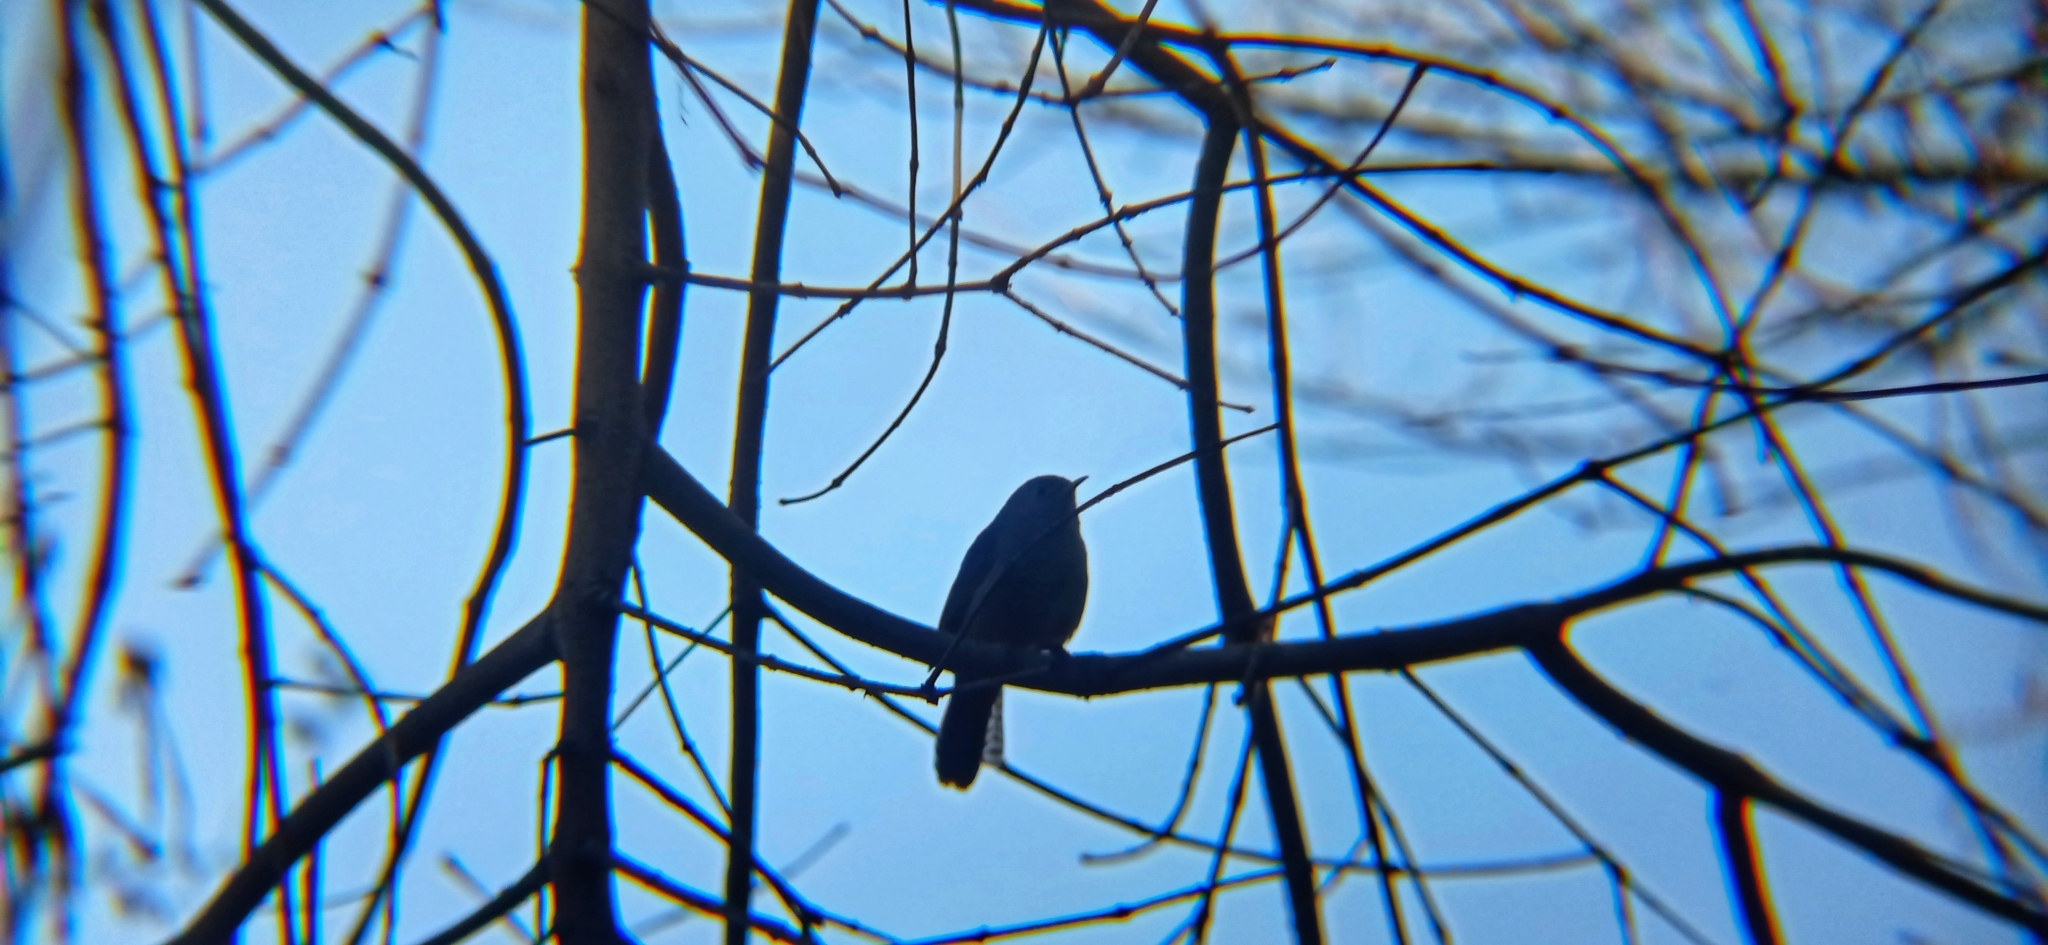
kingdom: Animalia
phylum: Chordata
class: Aves
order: Passeriformes
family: Troglodytidae
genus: Troglodytes
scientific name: Troglodytes aedon
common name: House wren
